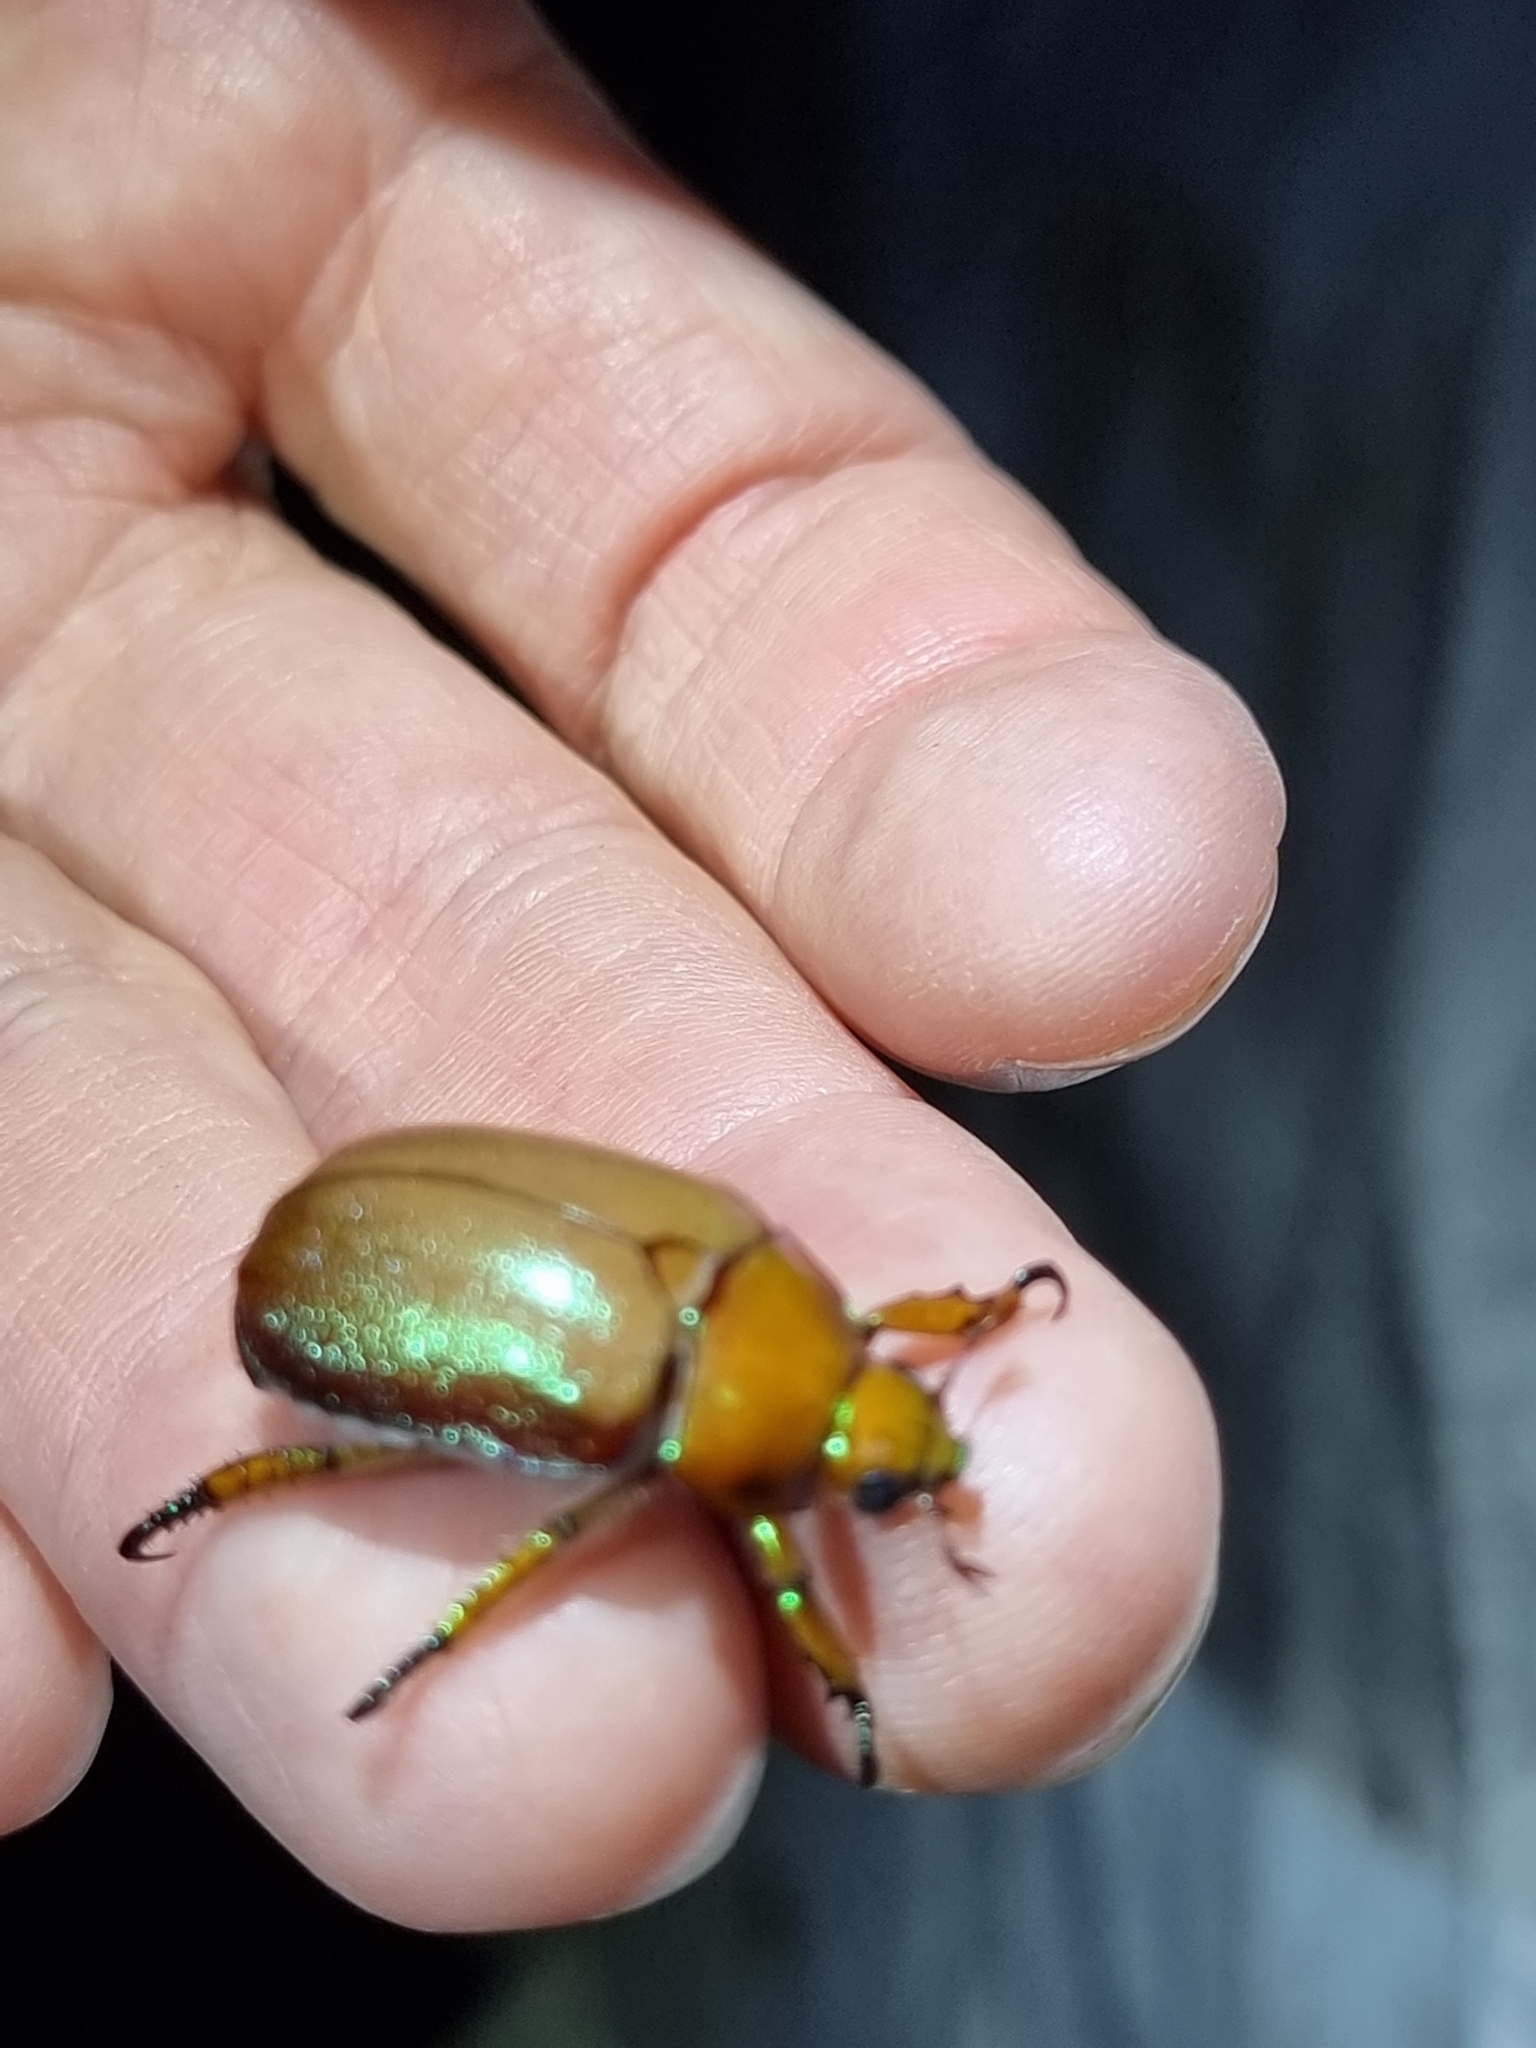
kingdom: Animalia
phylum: Arthropoda
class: Insecta
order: Coleoptera
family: Scarabaeidae
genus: Anoplognathus
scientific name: Anoplognathus rhinastus
